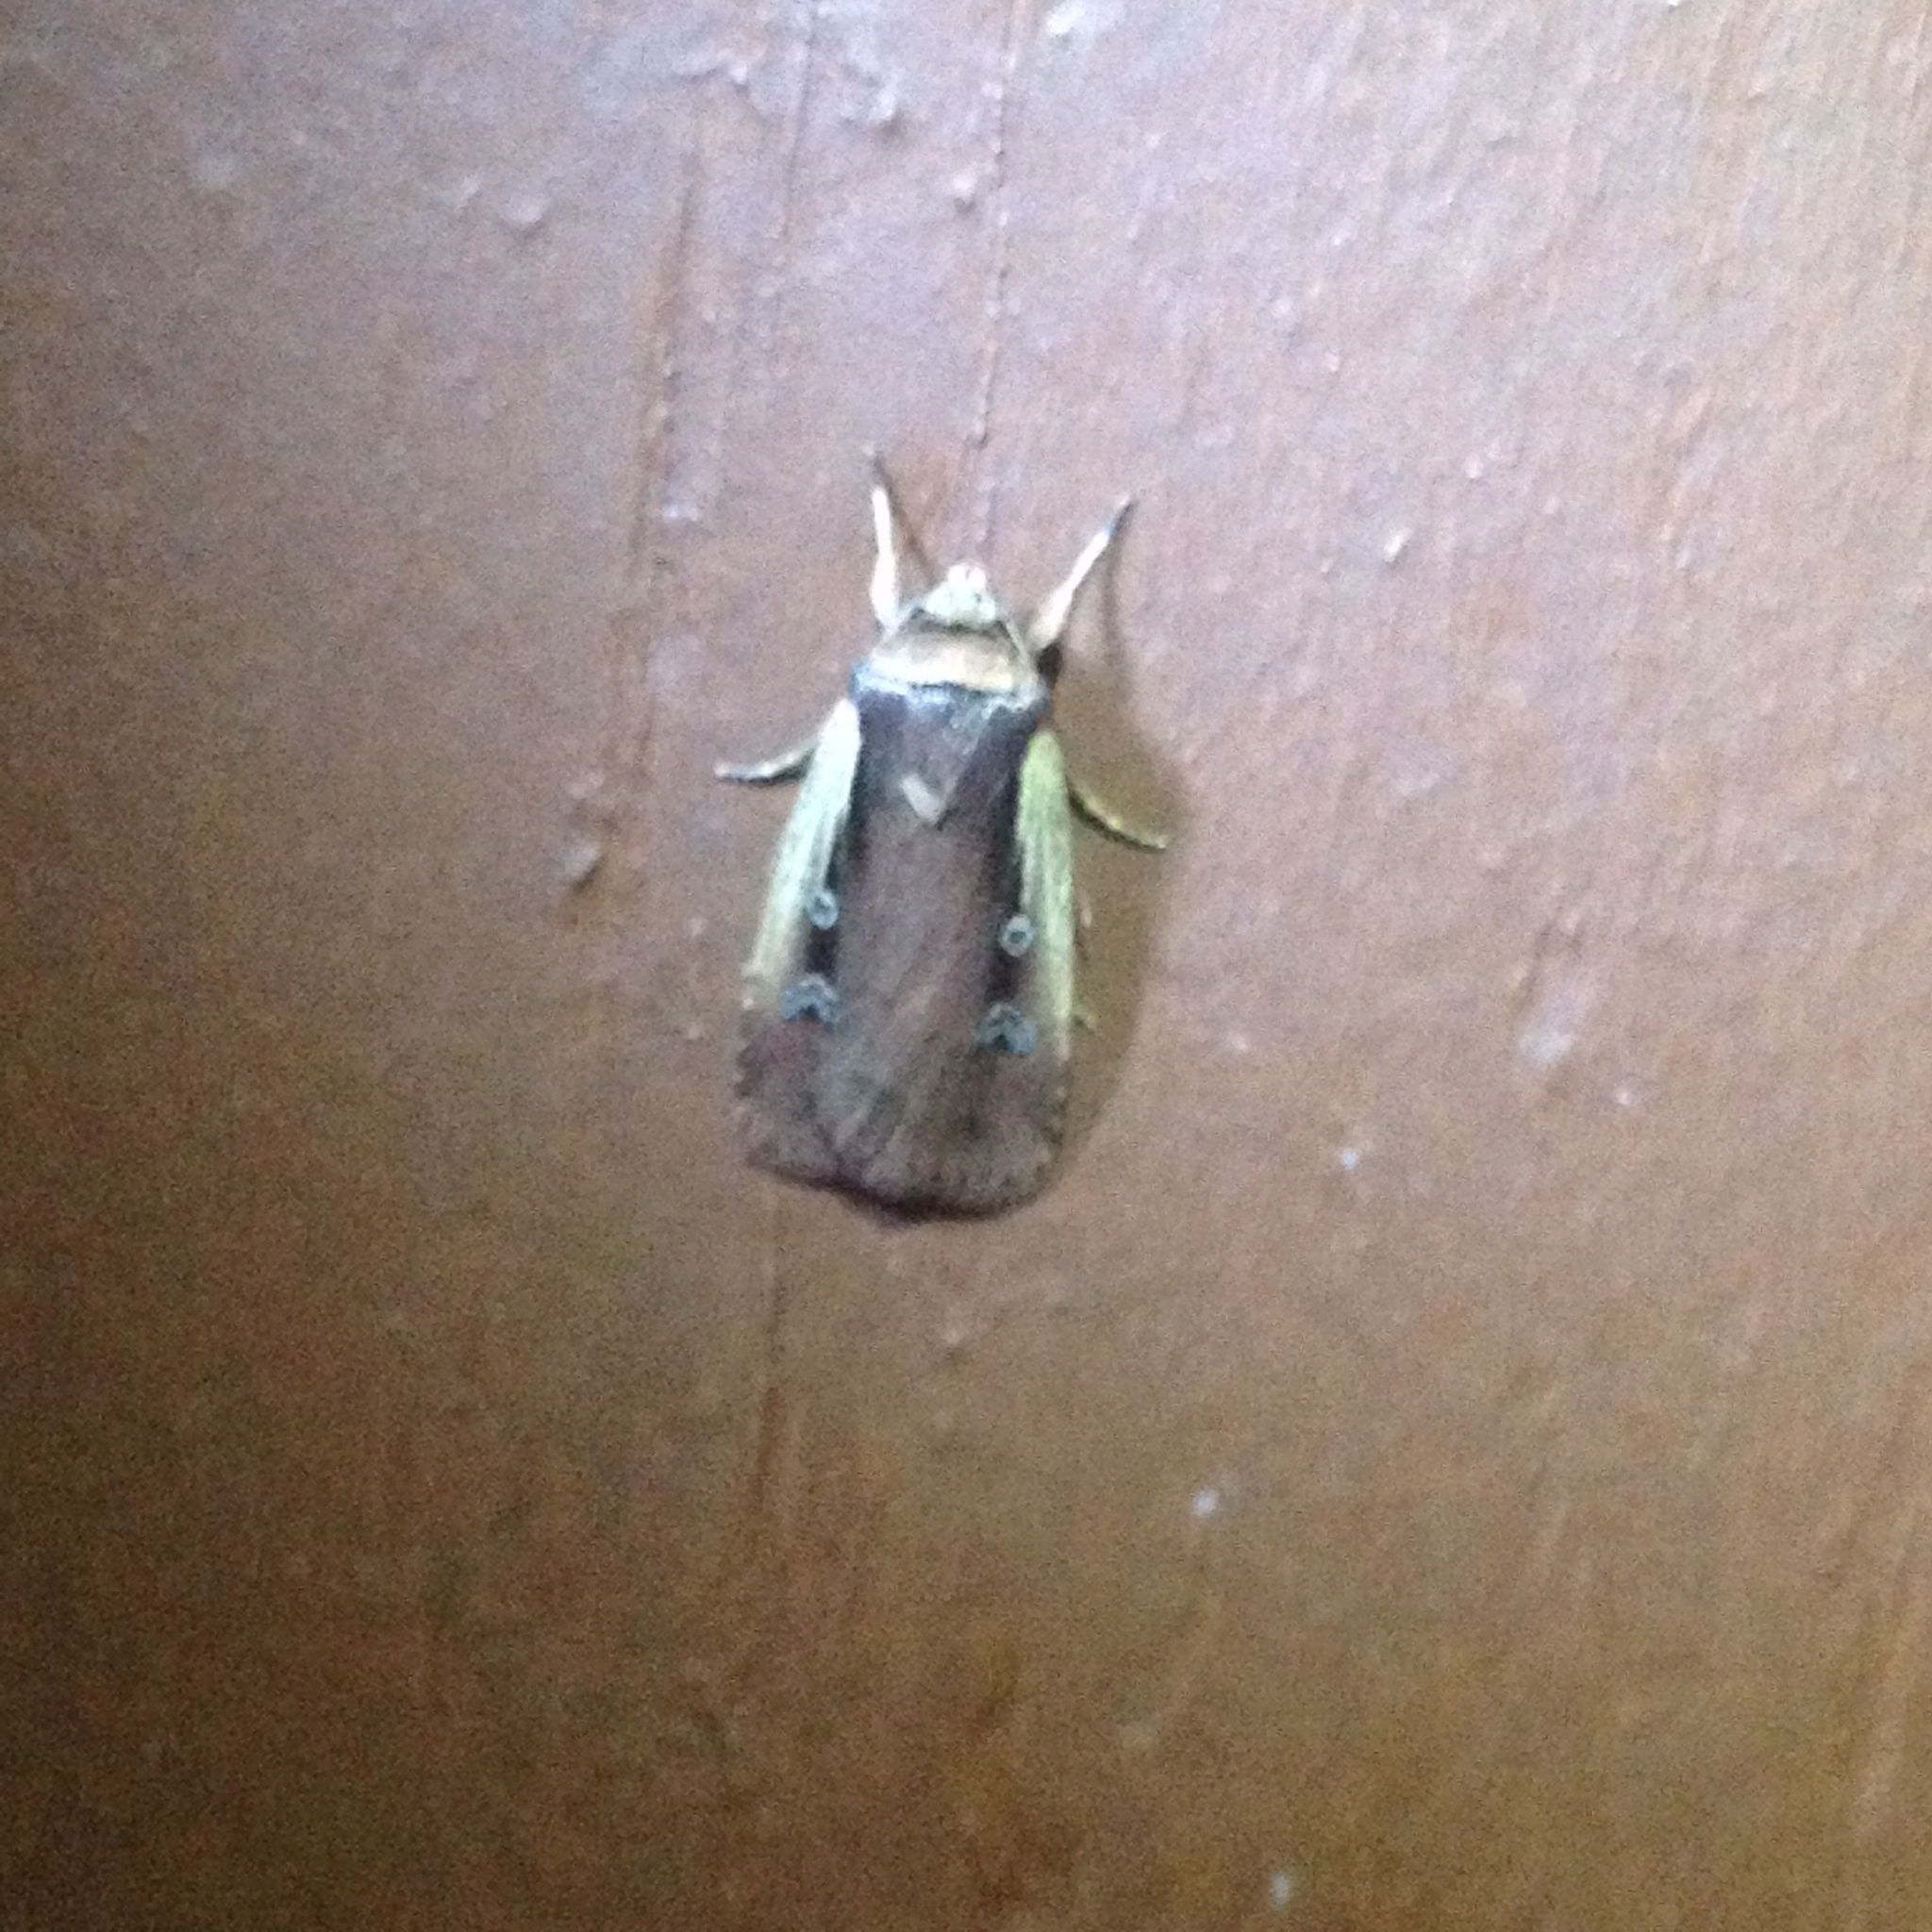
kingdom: Animalia
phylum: Arthropoda
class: Insecta
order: Lepidoptera
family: Noctuidae
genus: Ochropleura
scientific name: Ochropleura implecta
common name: Flame-shouldered dart
